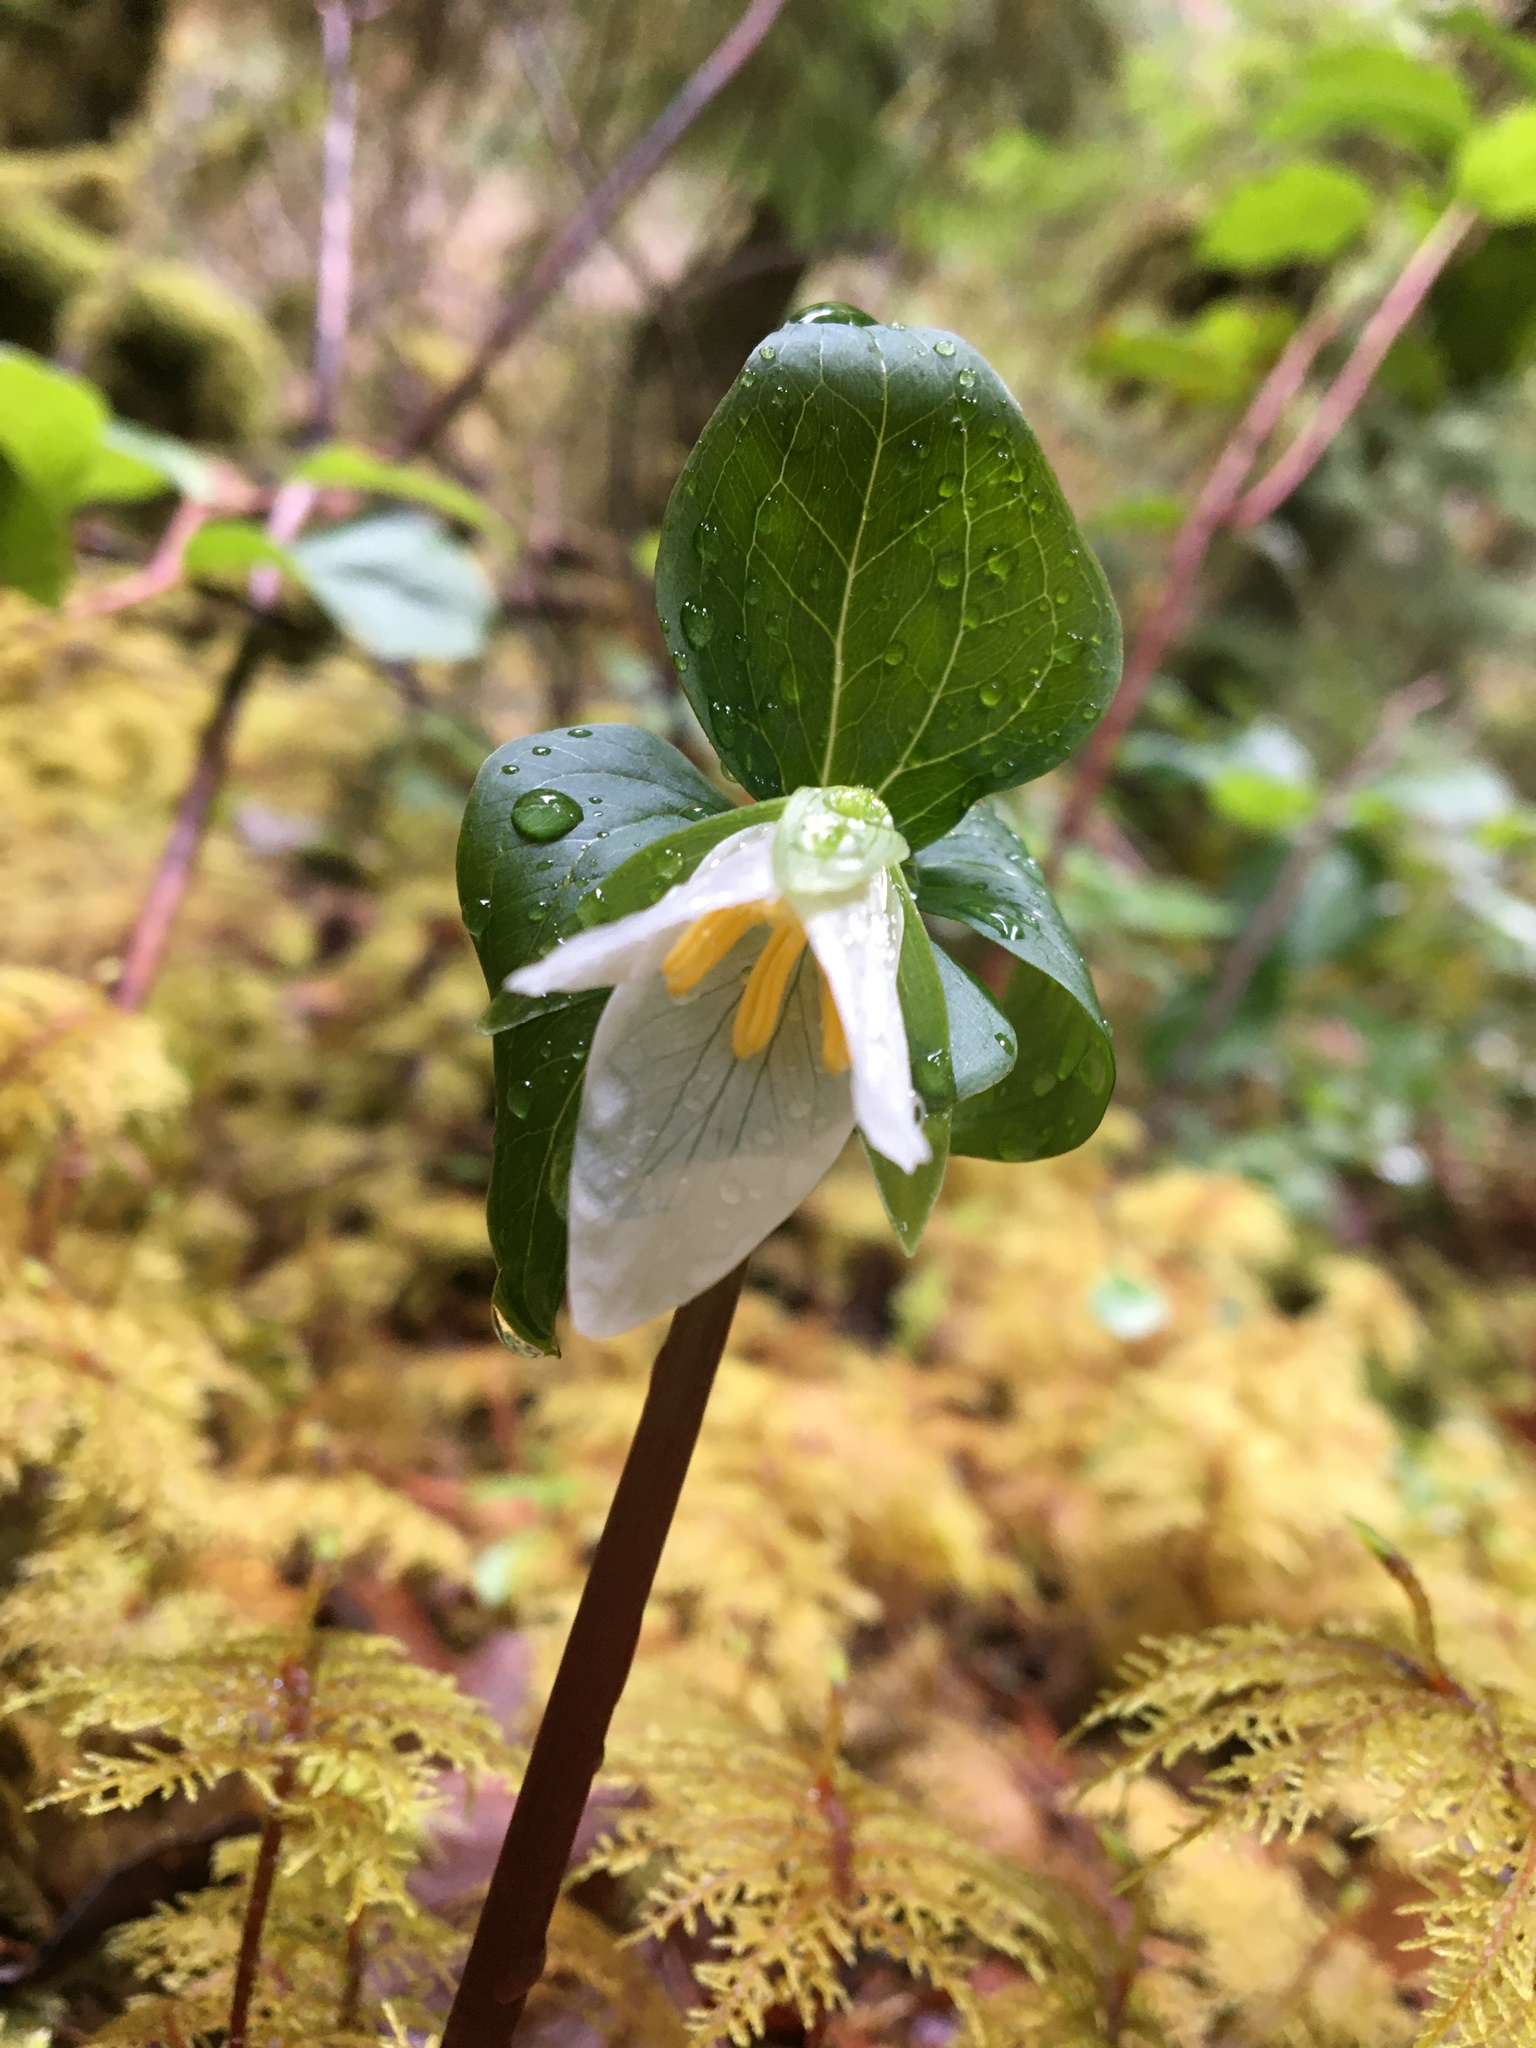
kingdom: Plantae
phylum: Tracheophyta
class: Liliopsida
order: Liliales
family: Melanthiaceae
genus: Trillium
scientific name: Trillium ovatum
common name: Pacific trillium
